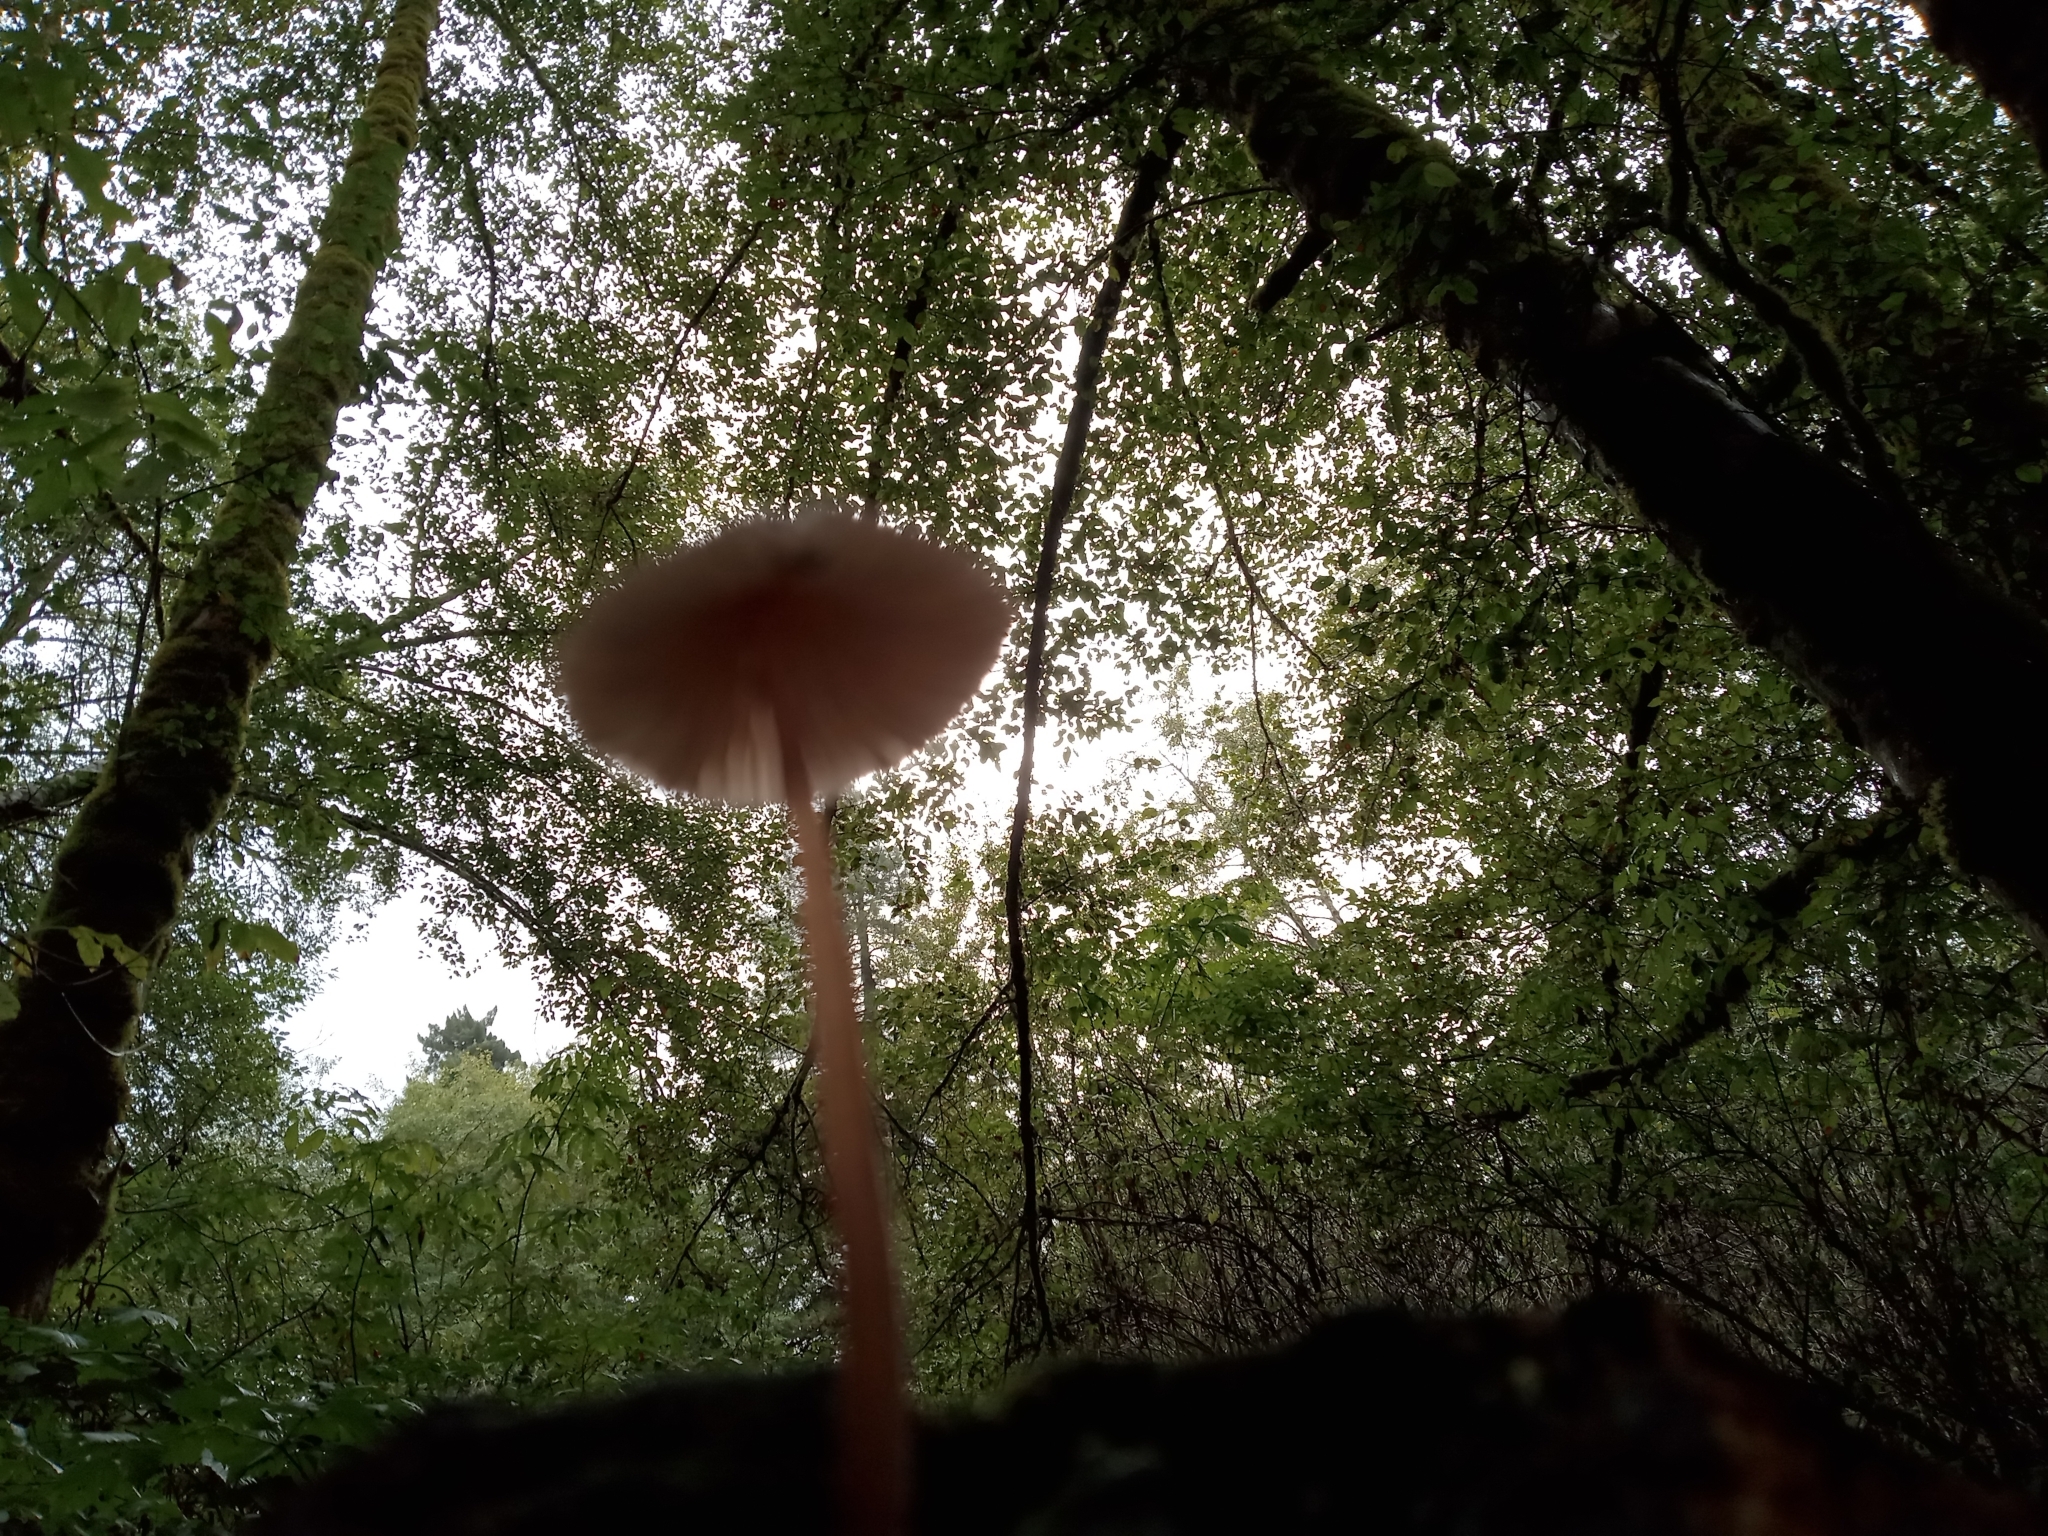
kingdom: Fungi
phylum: Basidiomycota
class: Agaricomycetes
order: Agaricales
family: Mycenaceae
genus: Mycena
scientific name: Mycena haematopus
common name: Burgundydrop bonnet
